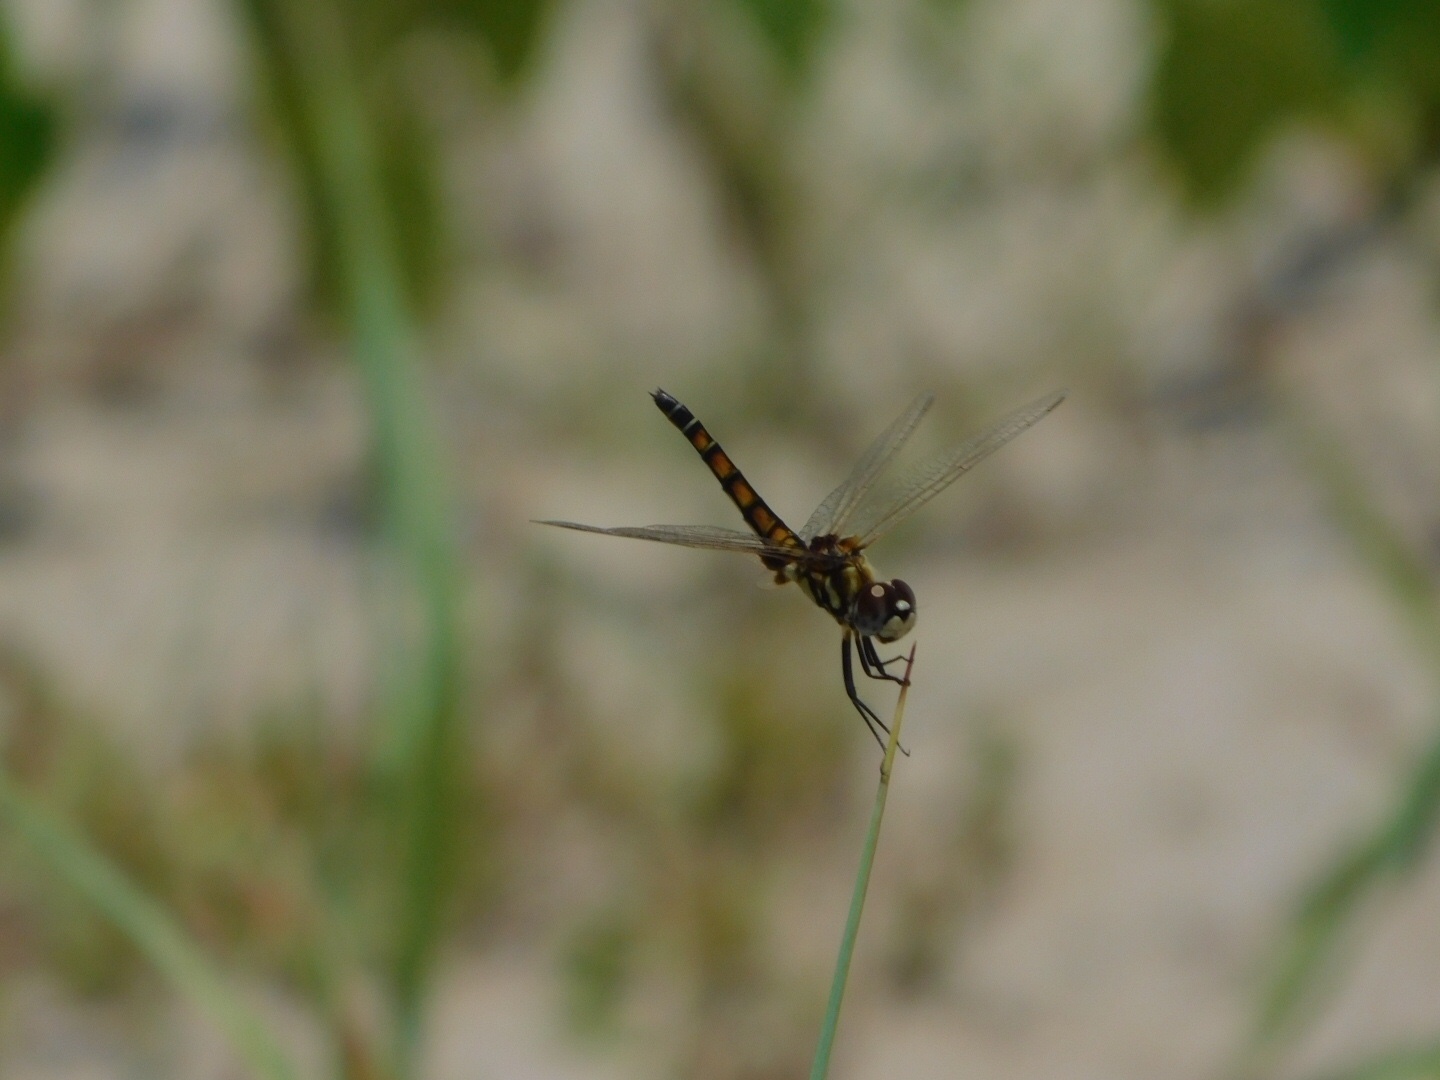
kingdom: Animalia
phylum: Arthropoda
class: Insecta
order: Odonata
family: Libellulidae
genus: Macrodiplax
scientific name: Macrodiplax balteata
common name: Marl pennant
